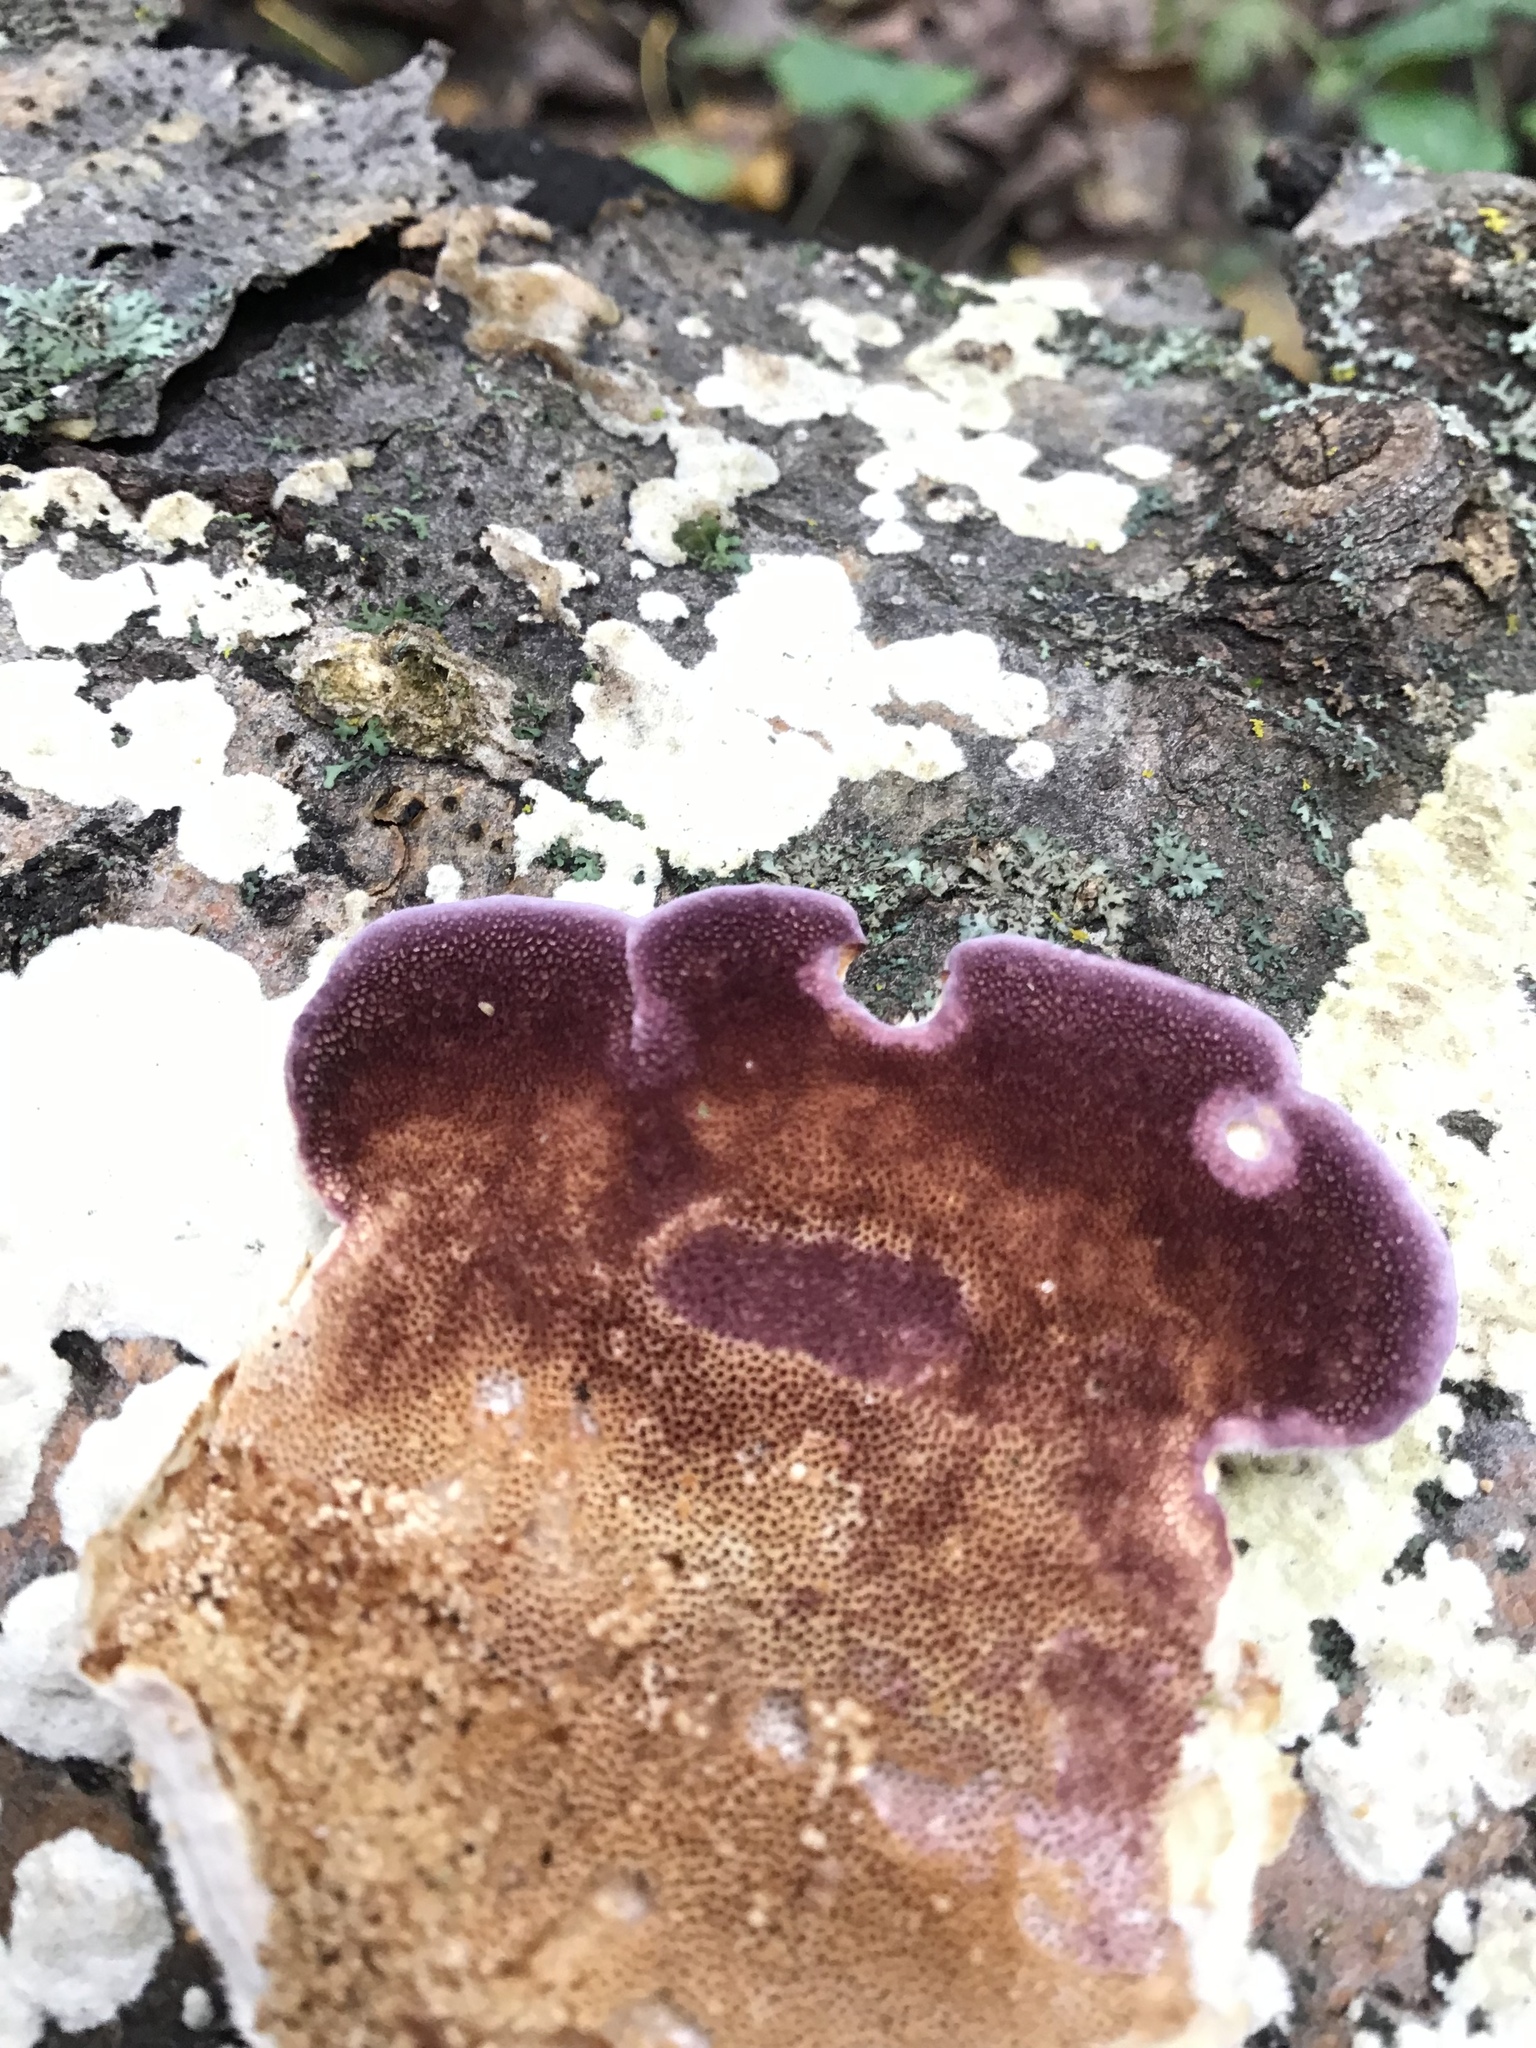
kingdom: Fungi
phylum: Basidiomycota
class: Agaricomycetes
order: Hymenochaetales
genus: Trichaptum
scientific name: Trichaptum subchartaceum
